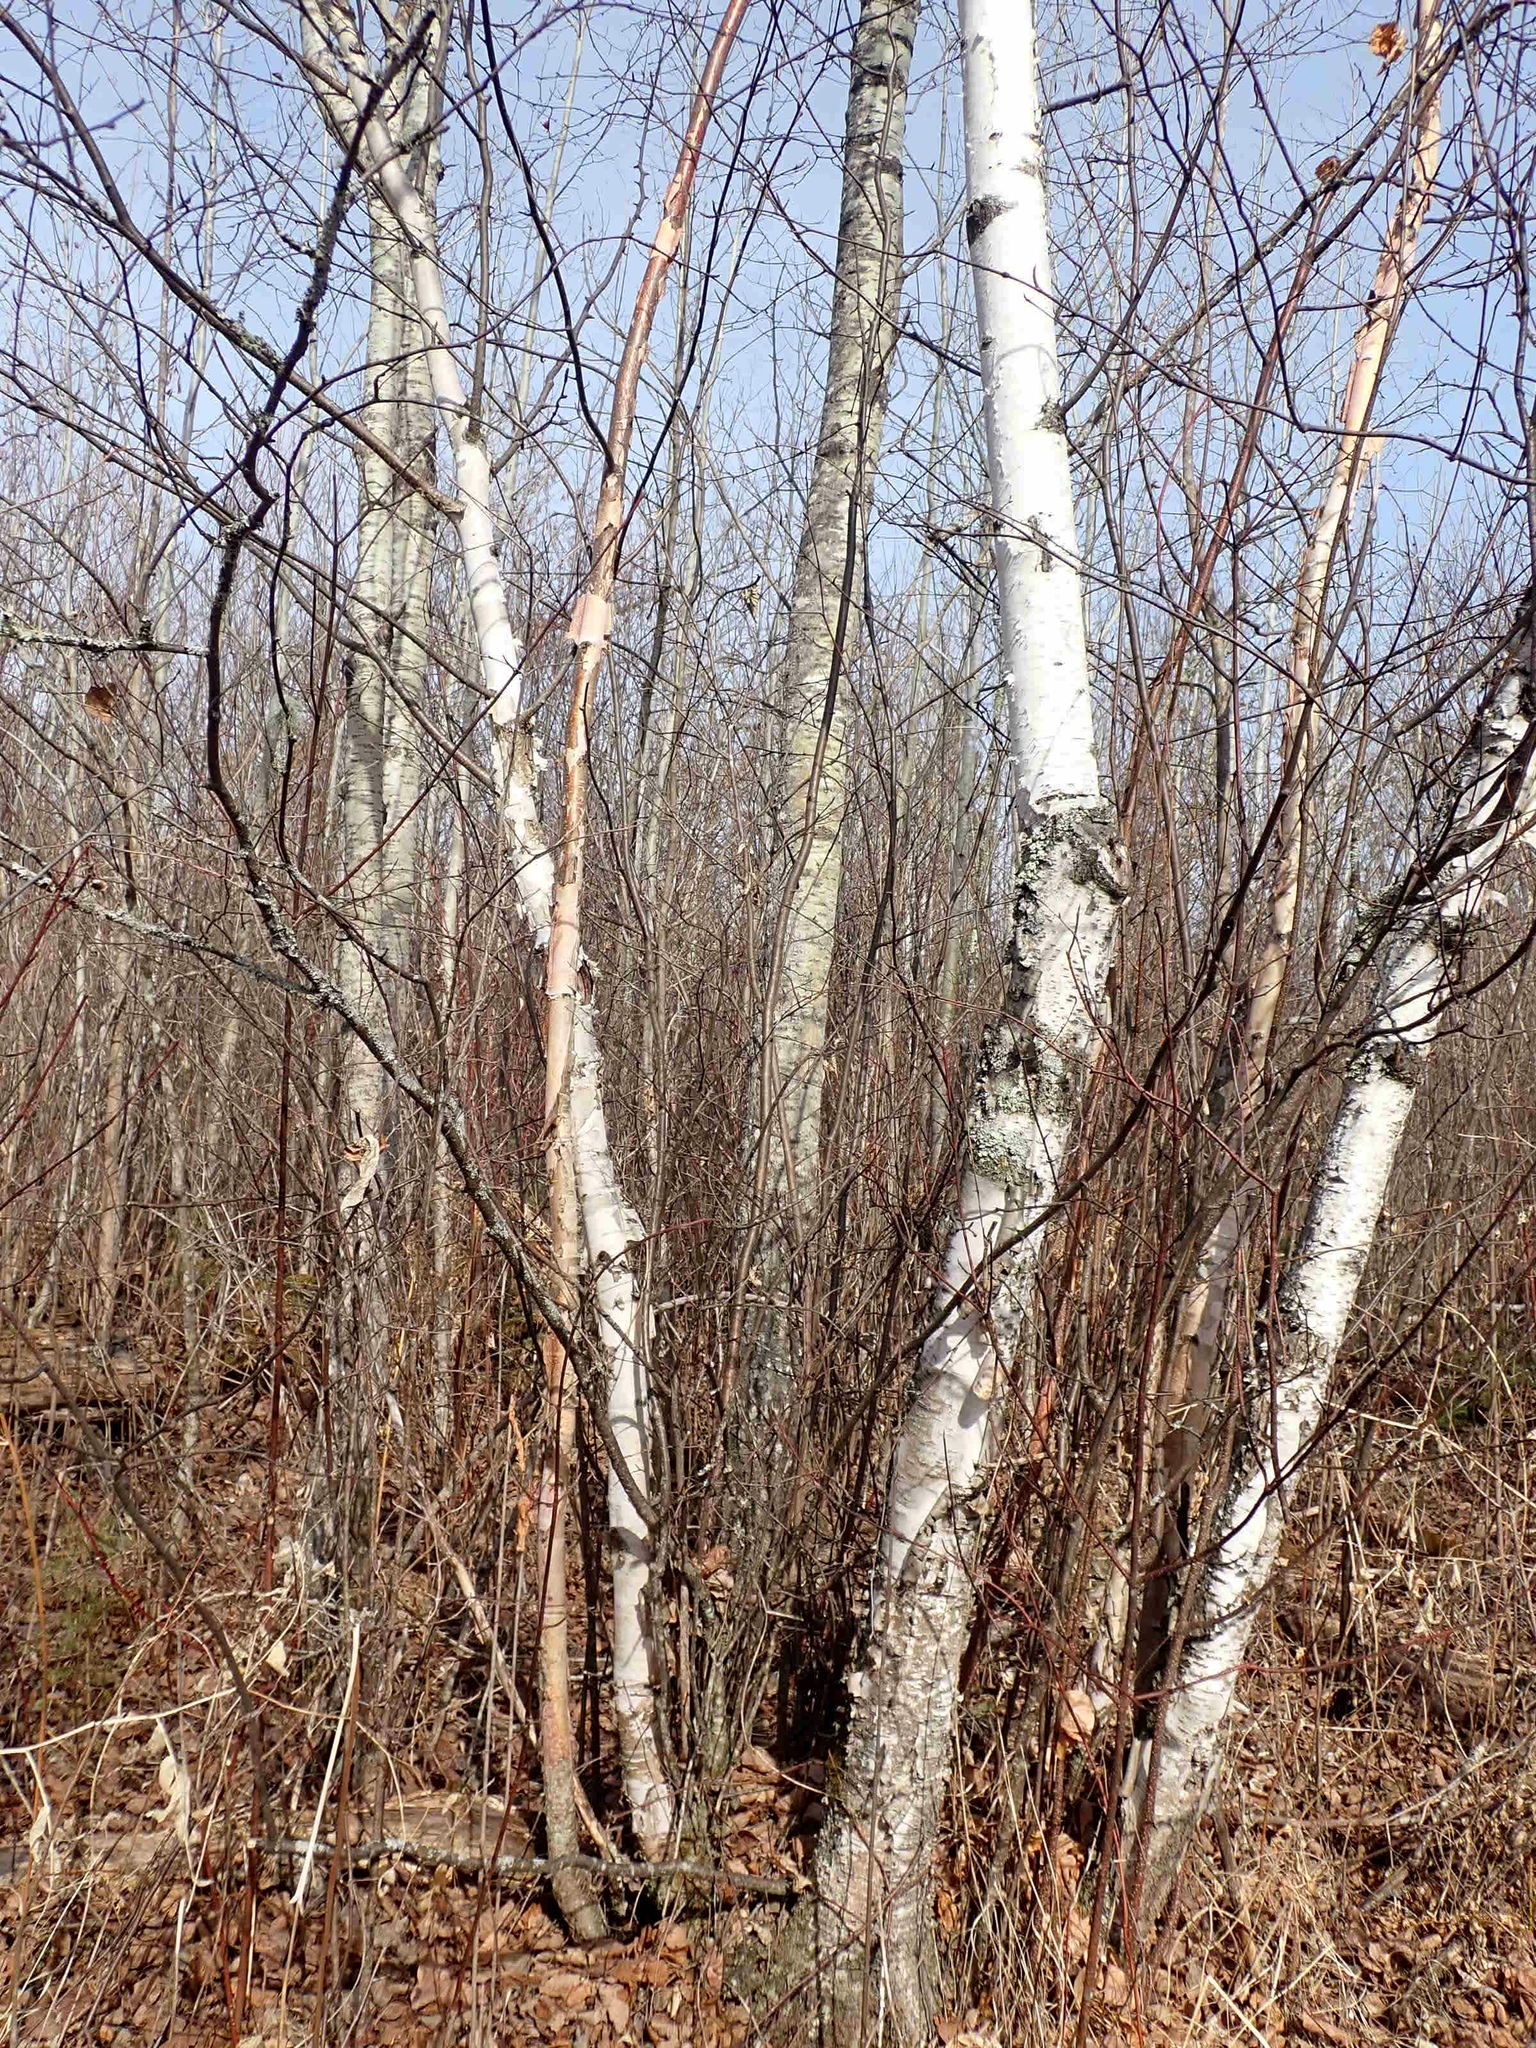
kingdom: Plantae
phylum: Tracheophyta
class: Magnoliopsida
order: Fagales
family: Betulaceae
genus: Betula
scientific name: Betula papyrifera
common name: Paper birch
